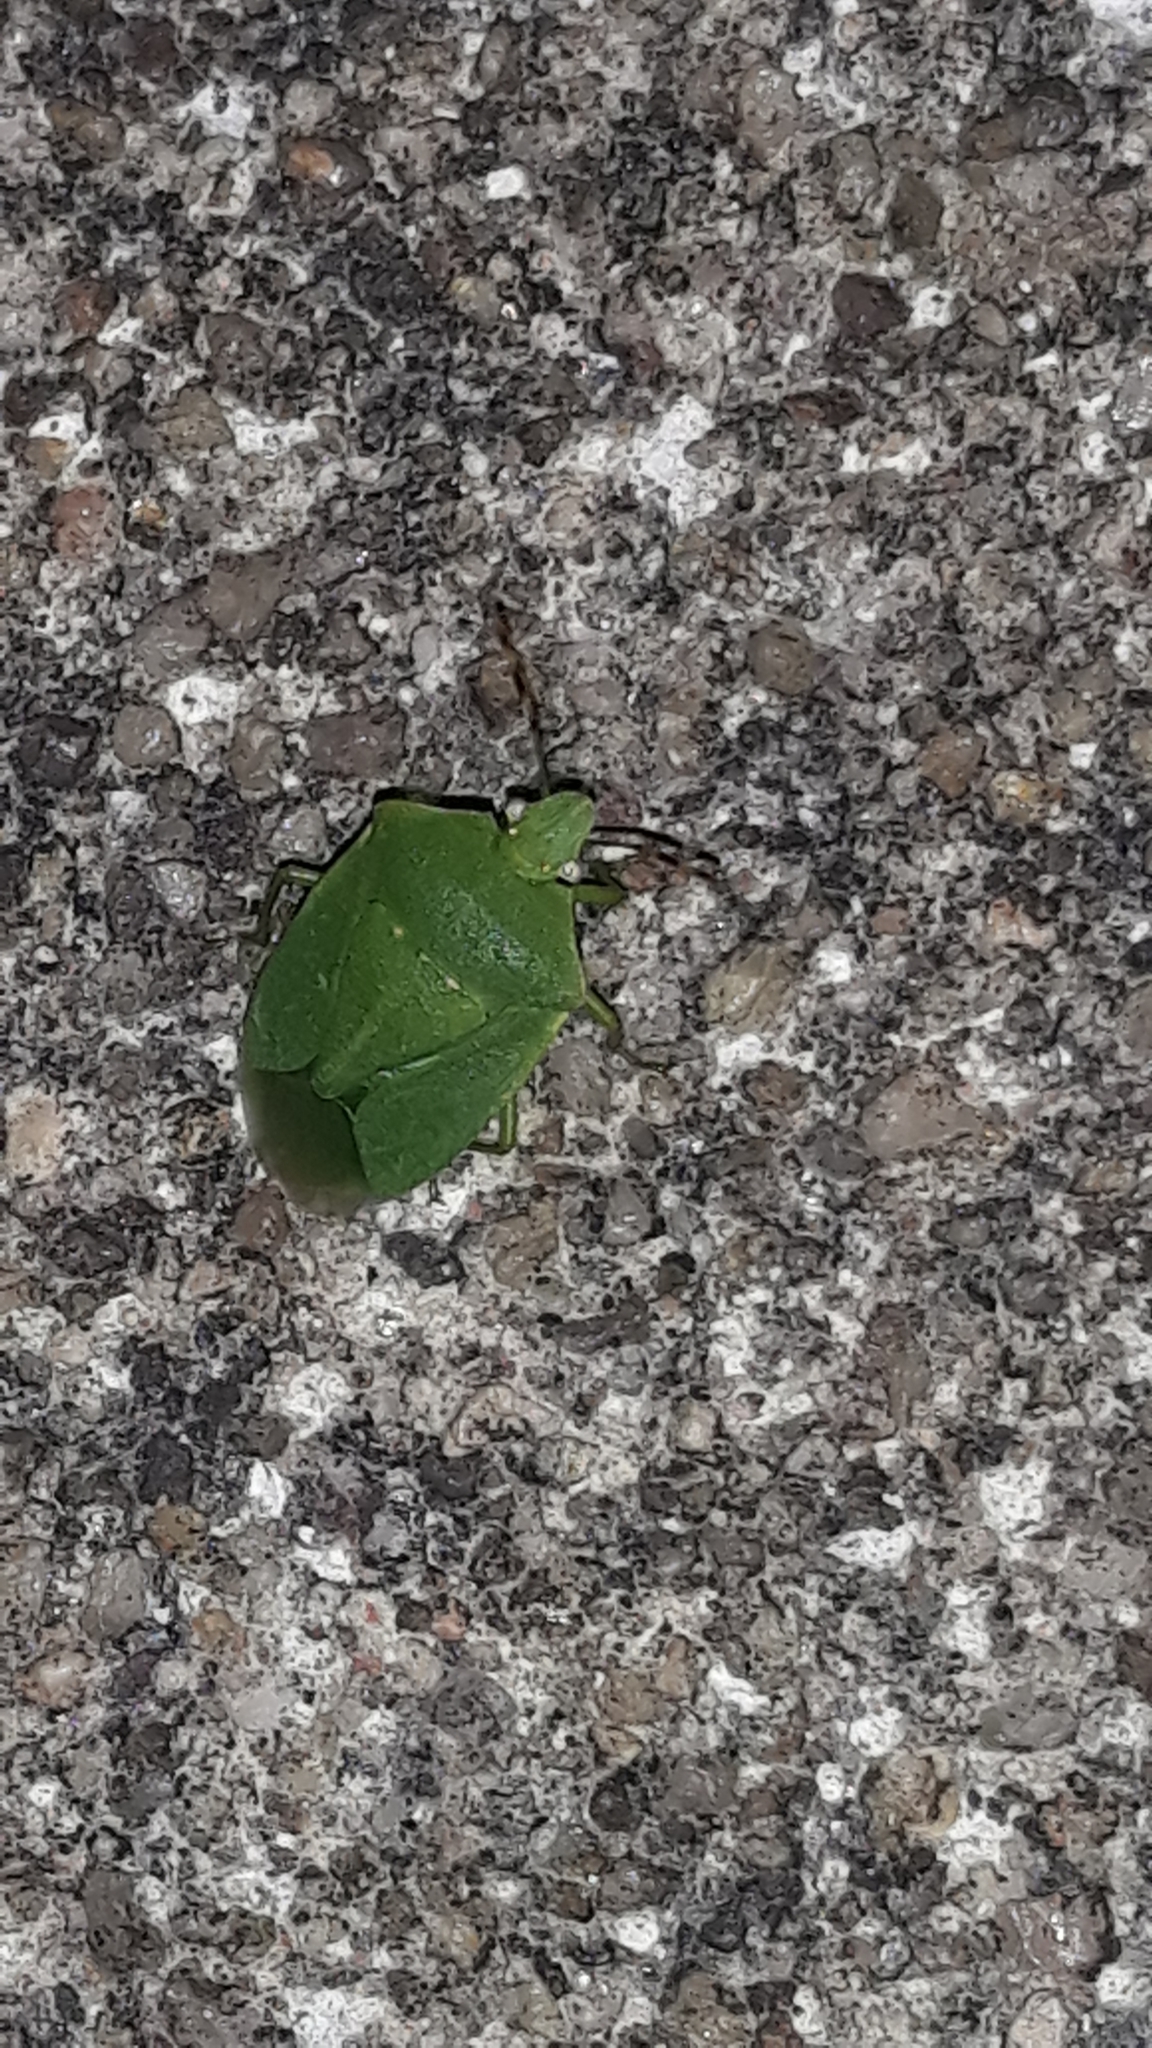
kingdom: Animalia
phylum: Arthropoda
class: Insecta
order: Hemiptera
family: Pentatomidae
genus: Nezara
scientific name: Nezara viridula
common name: Southern green stink bug
